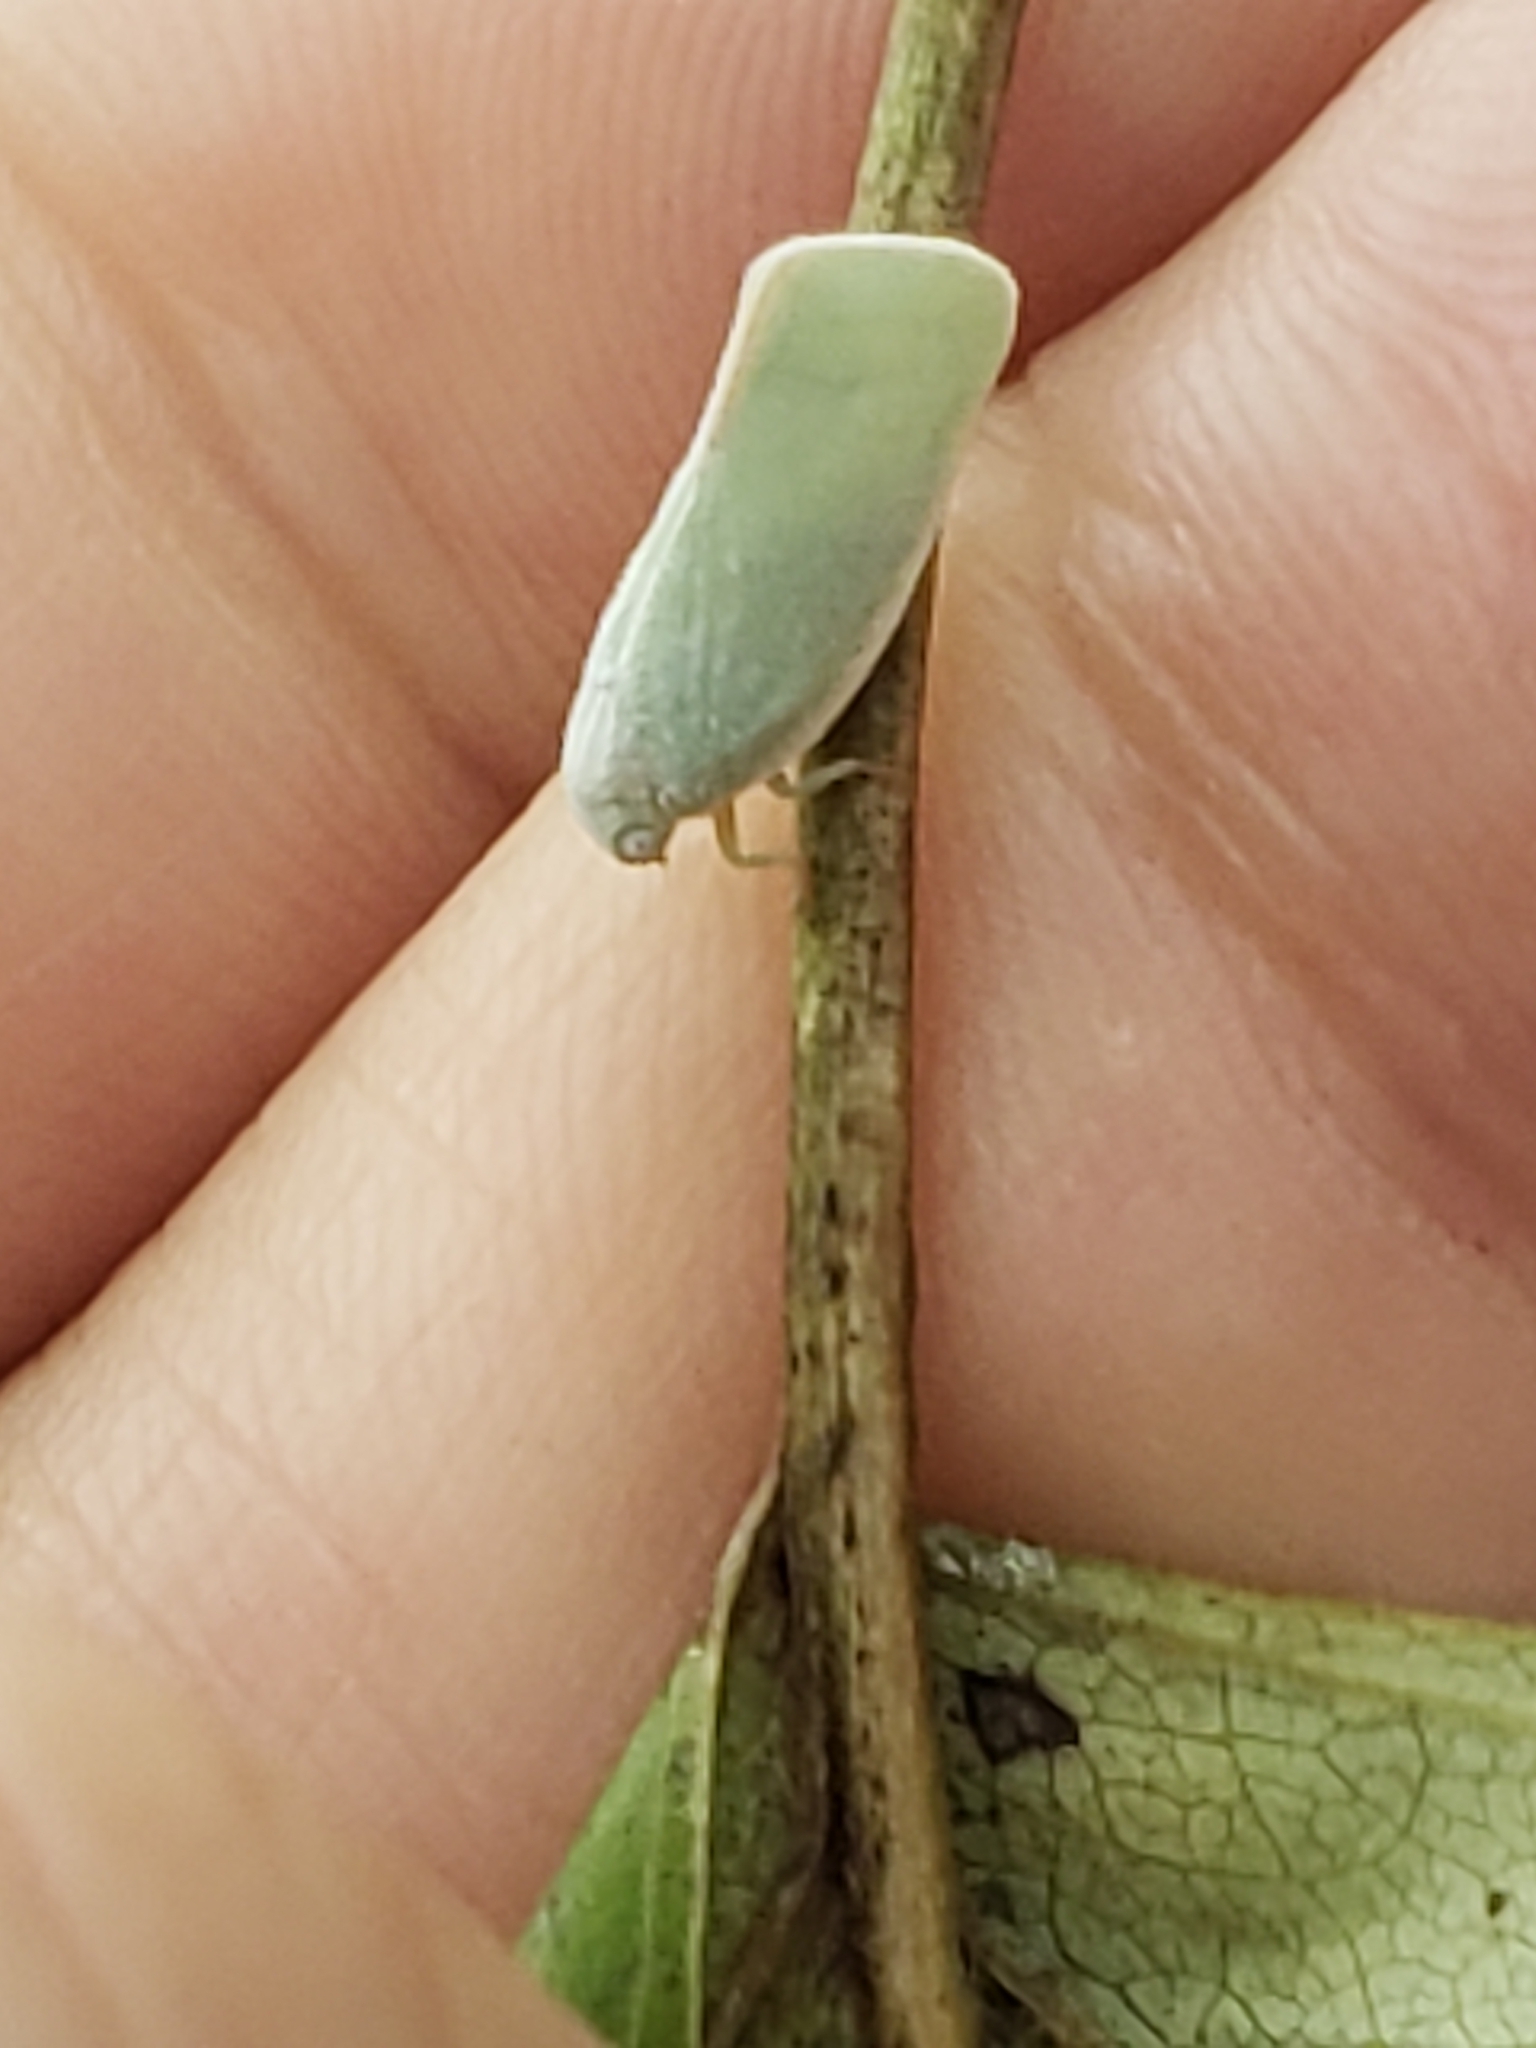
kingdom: Animalia
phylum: Arthropoda
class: Insecta
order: Hemiptera
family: Flatidae
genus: Flatormenis
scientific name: Flatormenis proxima
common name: Northern flatid planthopper
